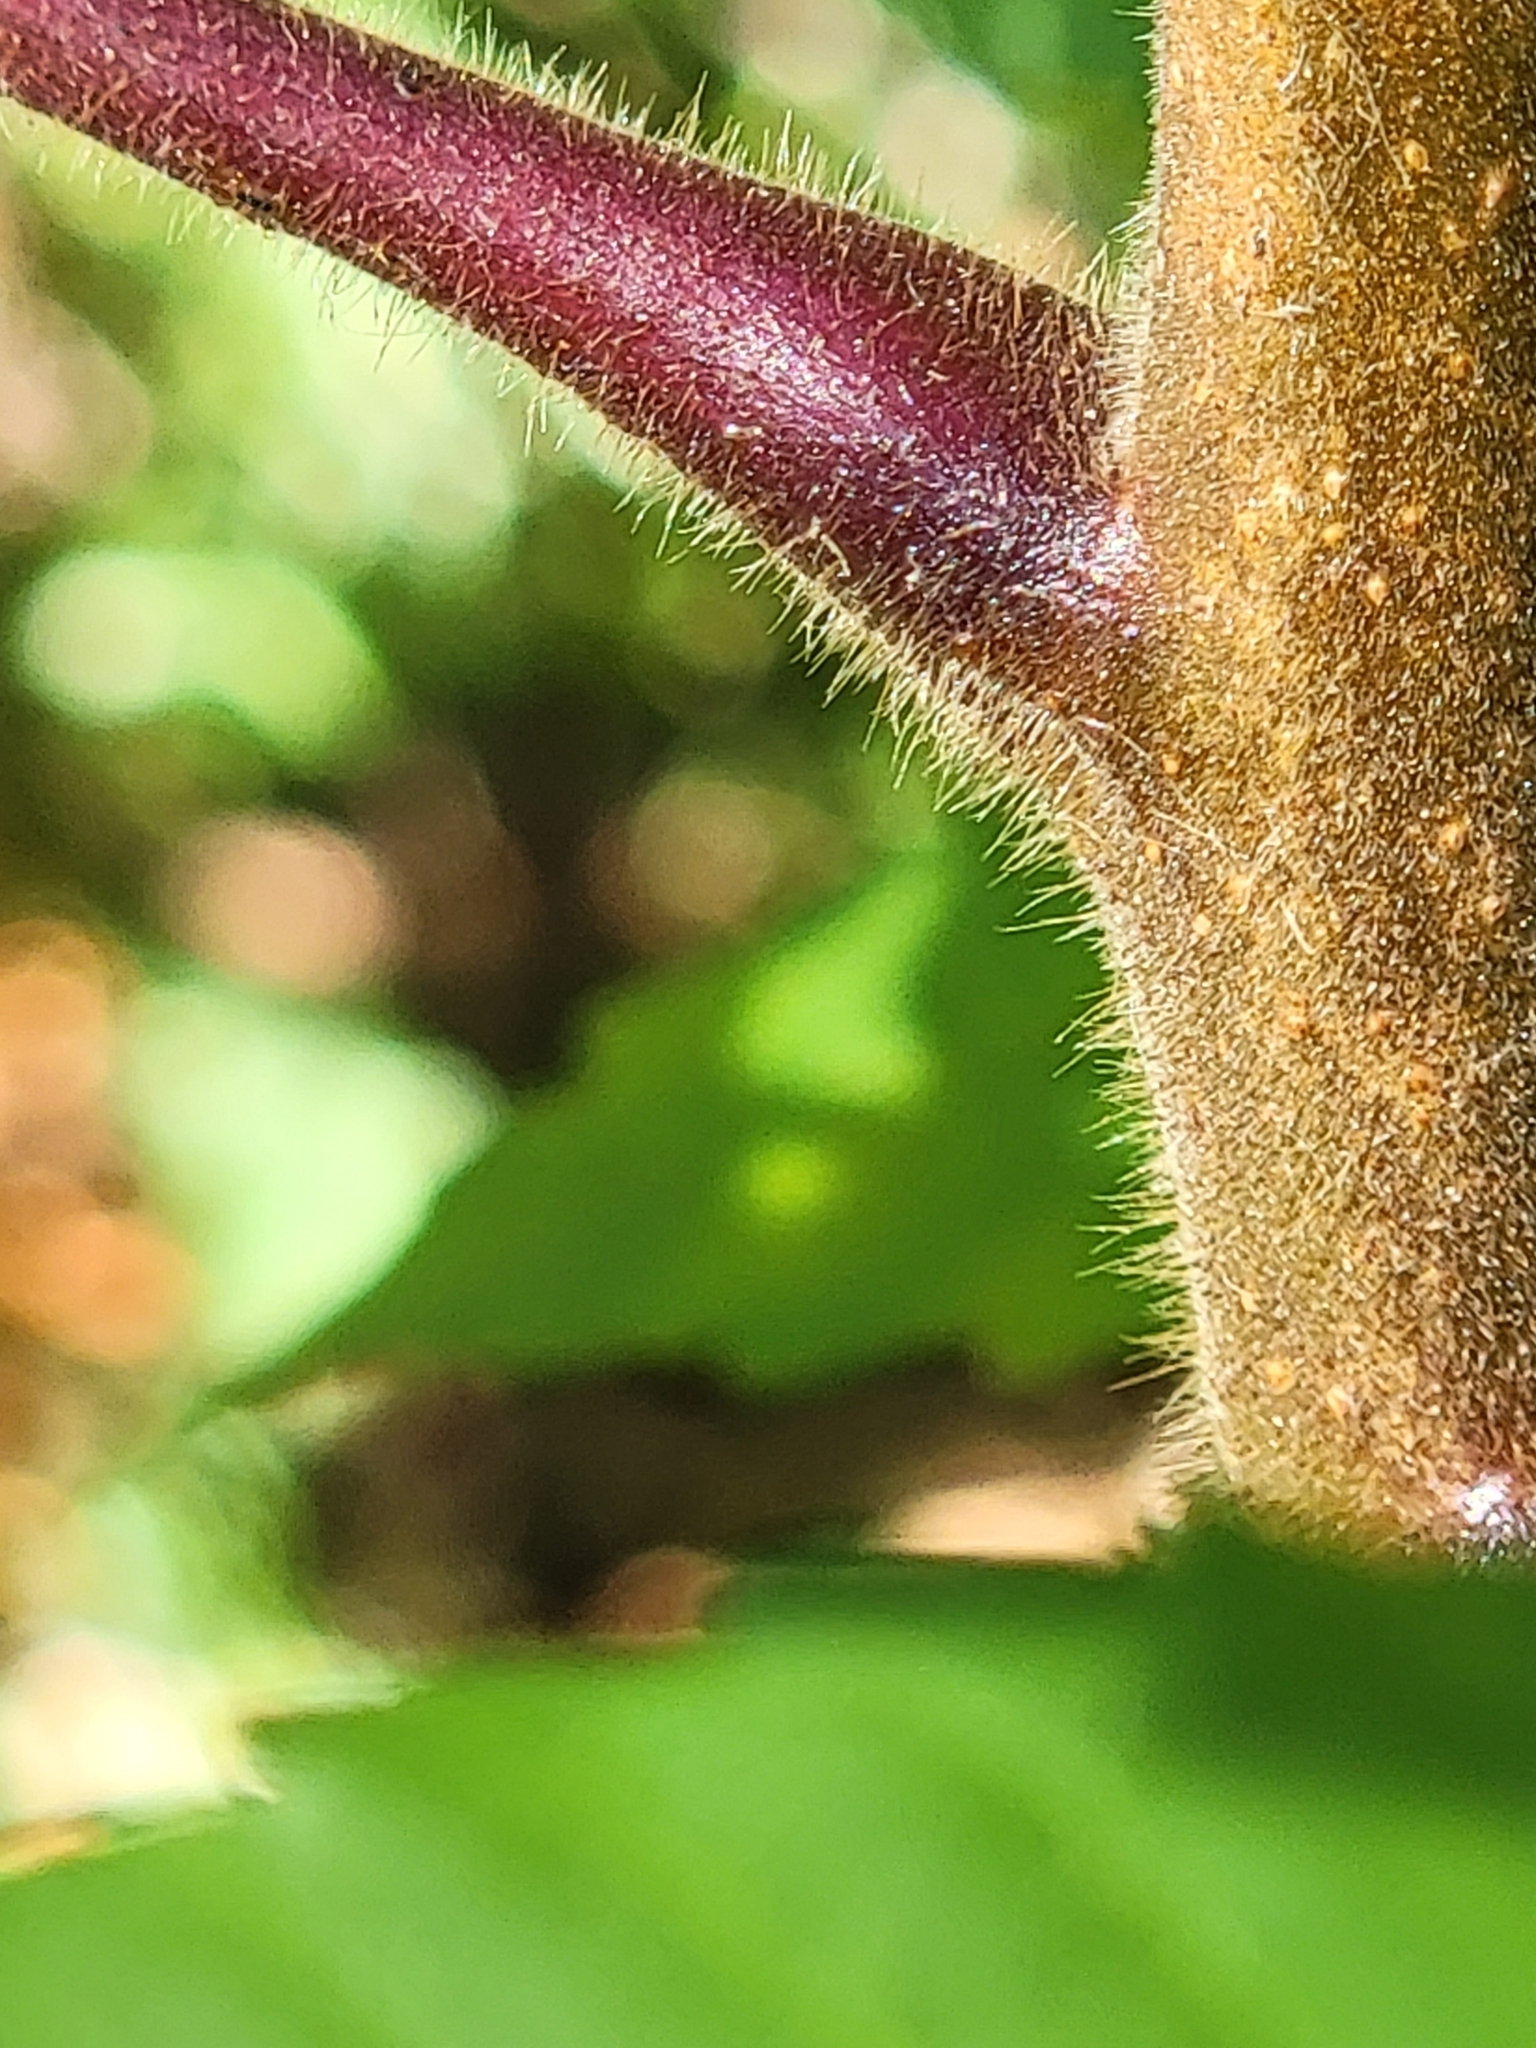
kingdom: Plantae
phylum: Tracheophyta
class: Magnoliopsida
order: Sapindales
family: Anacardiaceae
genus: Rhus
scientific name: Rhus typhina
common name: Staghorn sumac
